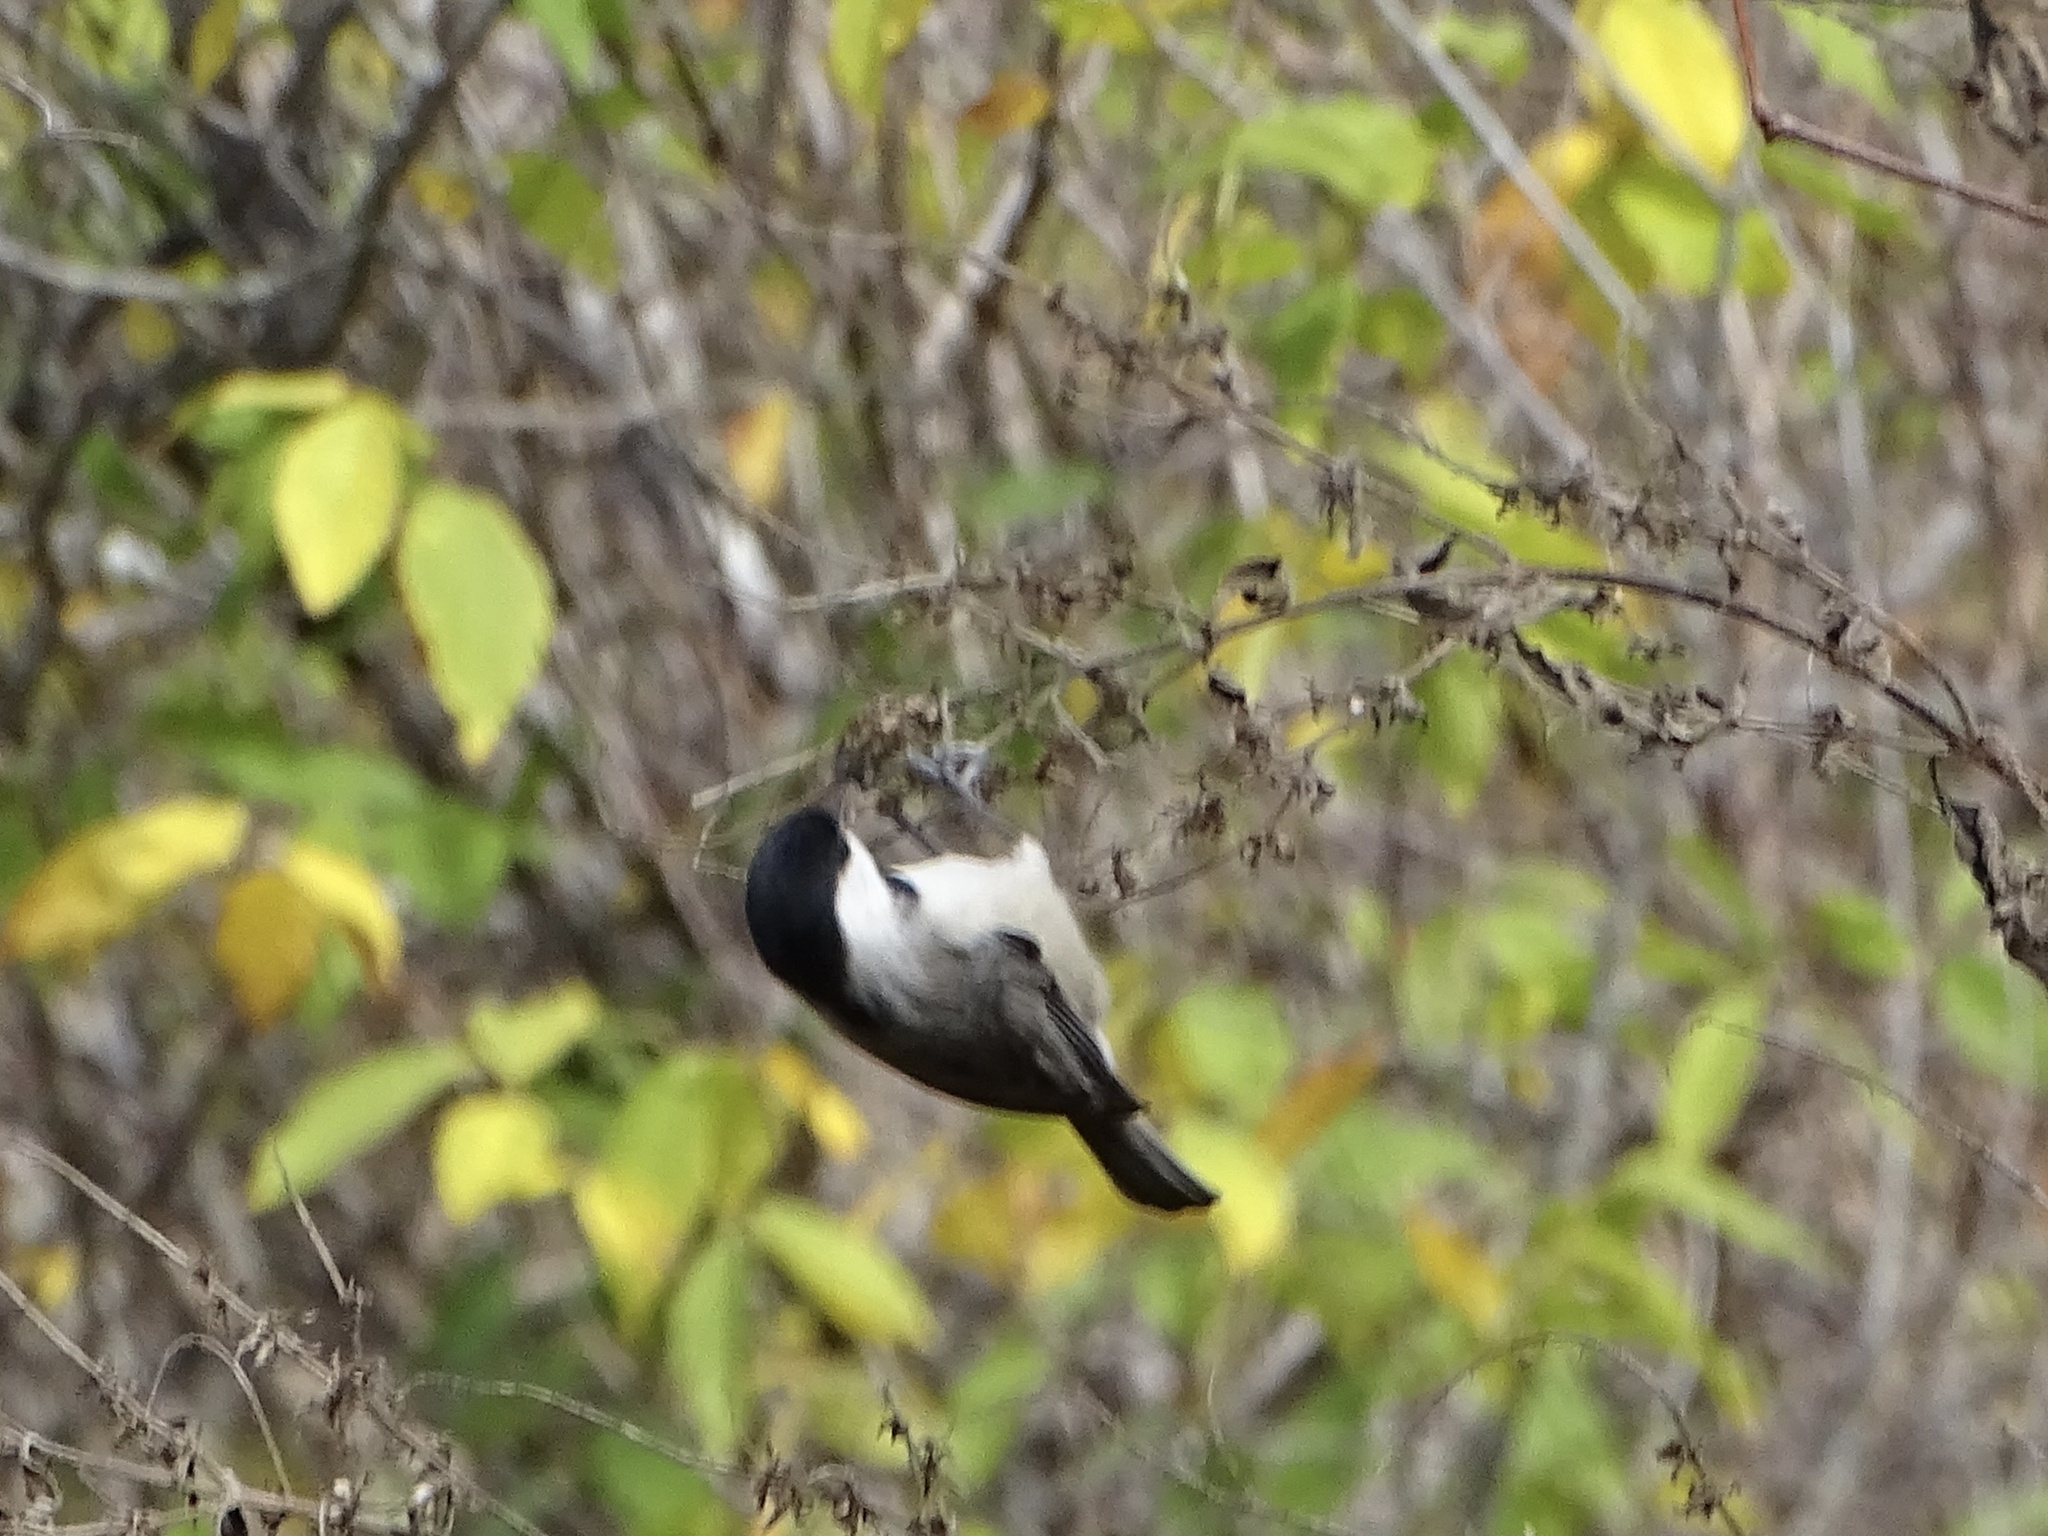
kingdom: Animalia
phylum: Chordata
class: Aves
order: Passeriformes
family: Paridae
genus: Poecile
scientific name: Poecile carolinensis
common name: Carolina chickadee
